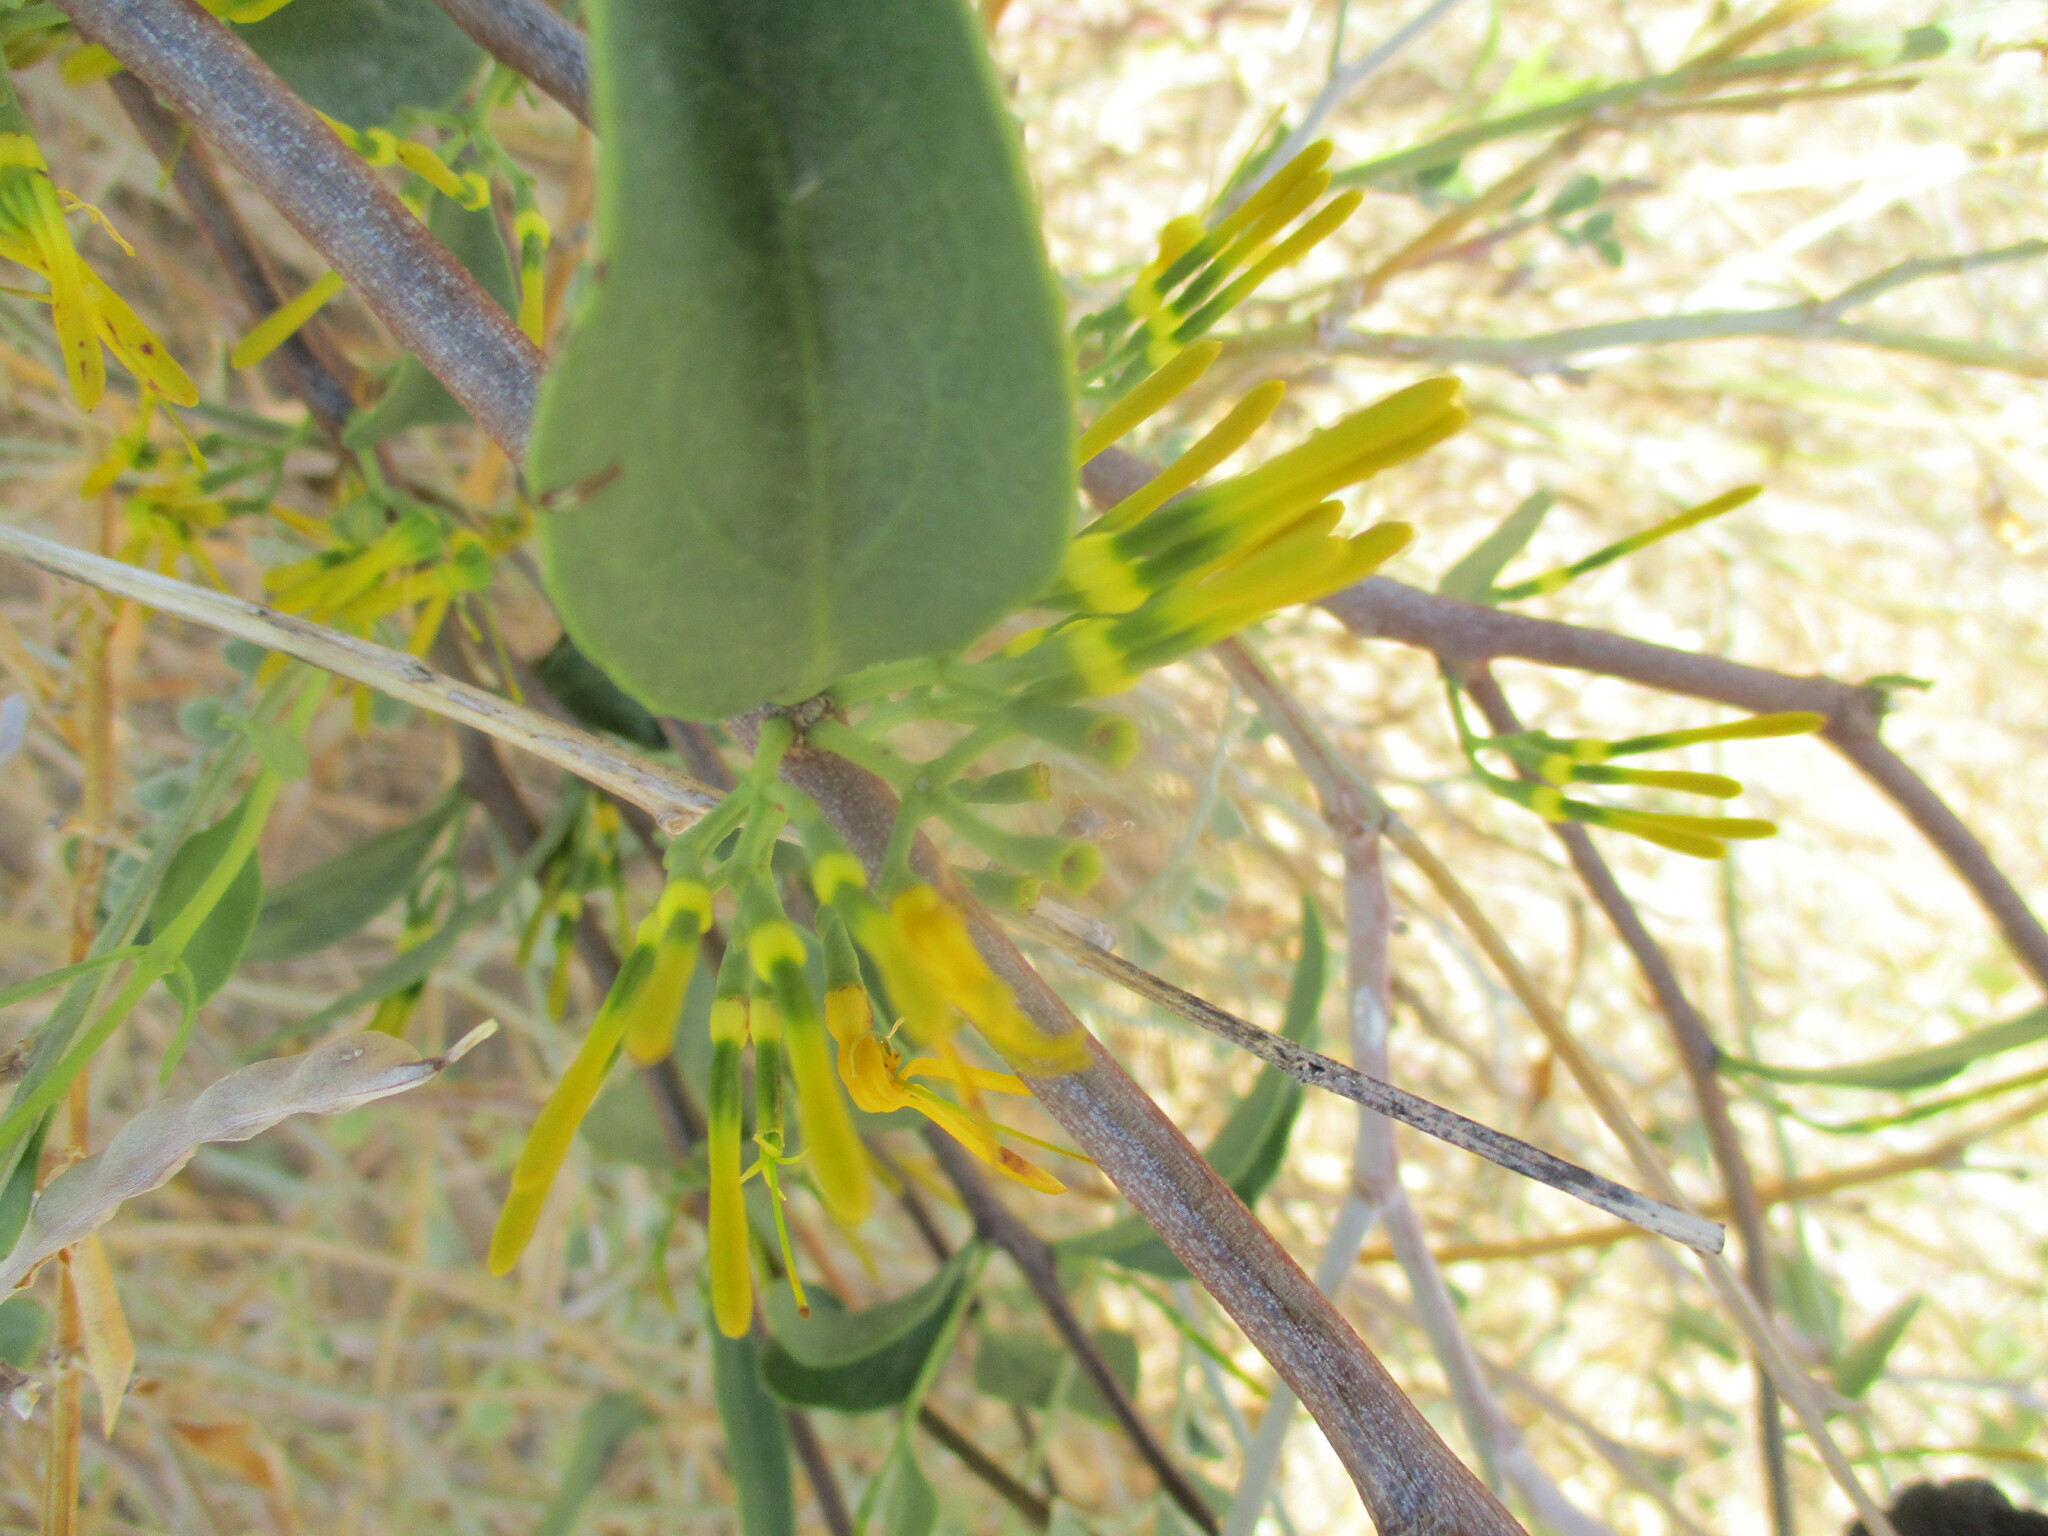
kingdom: Plantae
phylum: Tracheophyta
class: Magnoliopsida
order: Santalales
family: Loranthaceae
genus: Loranthella
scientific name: Loranthella welwitschii
